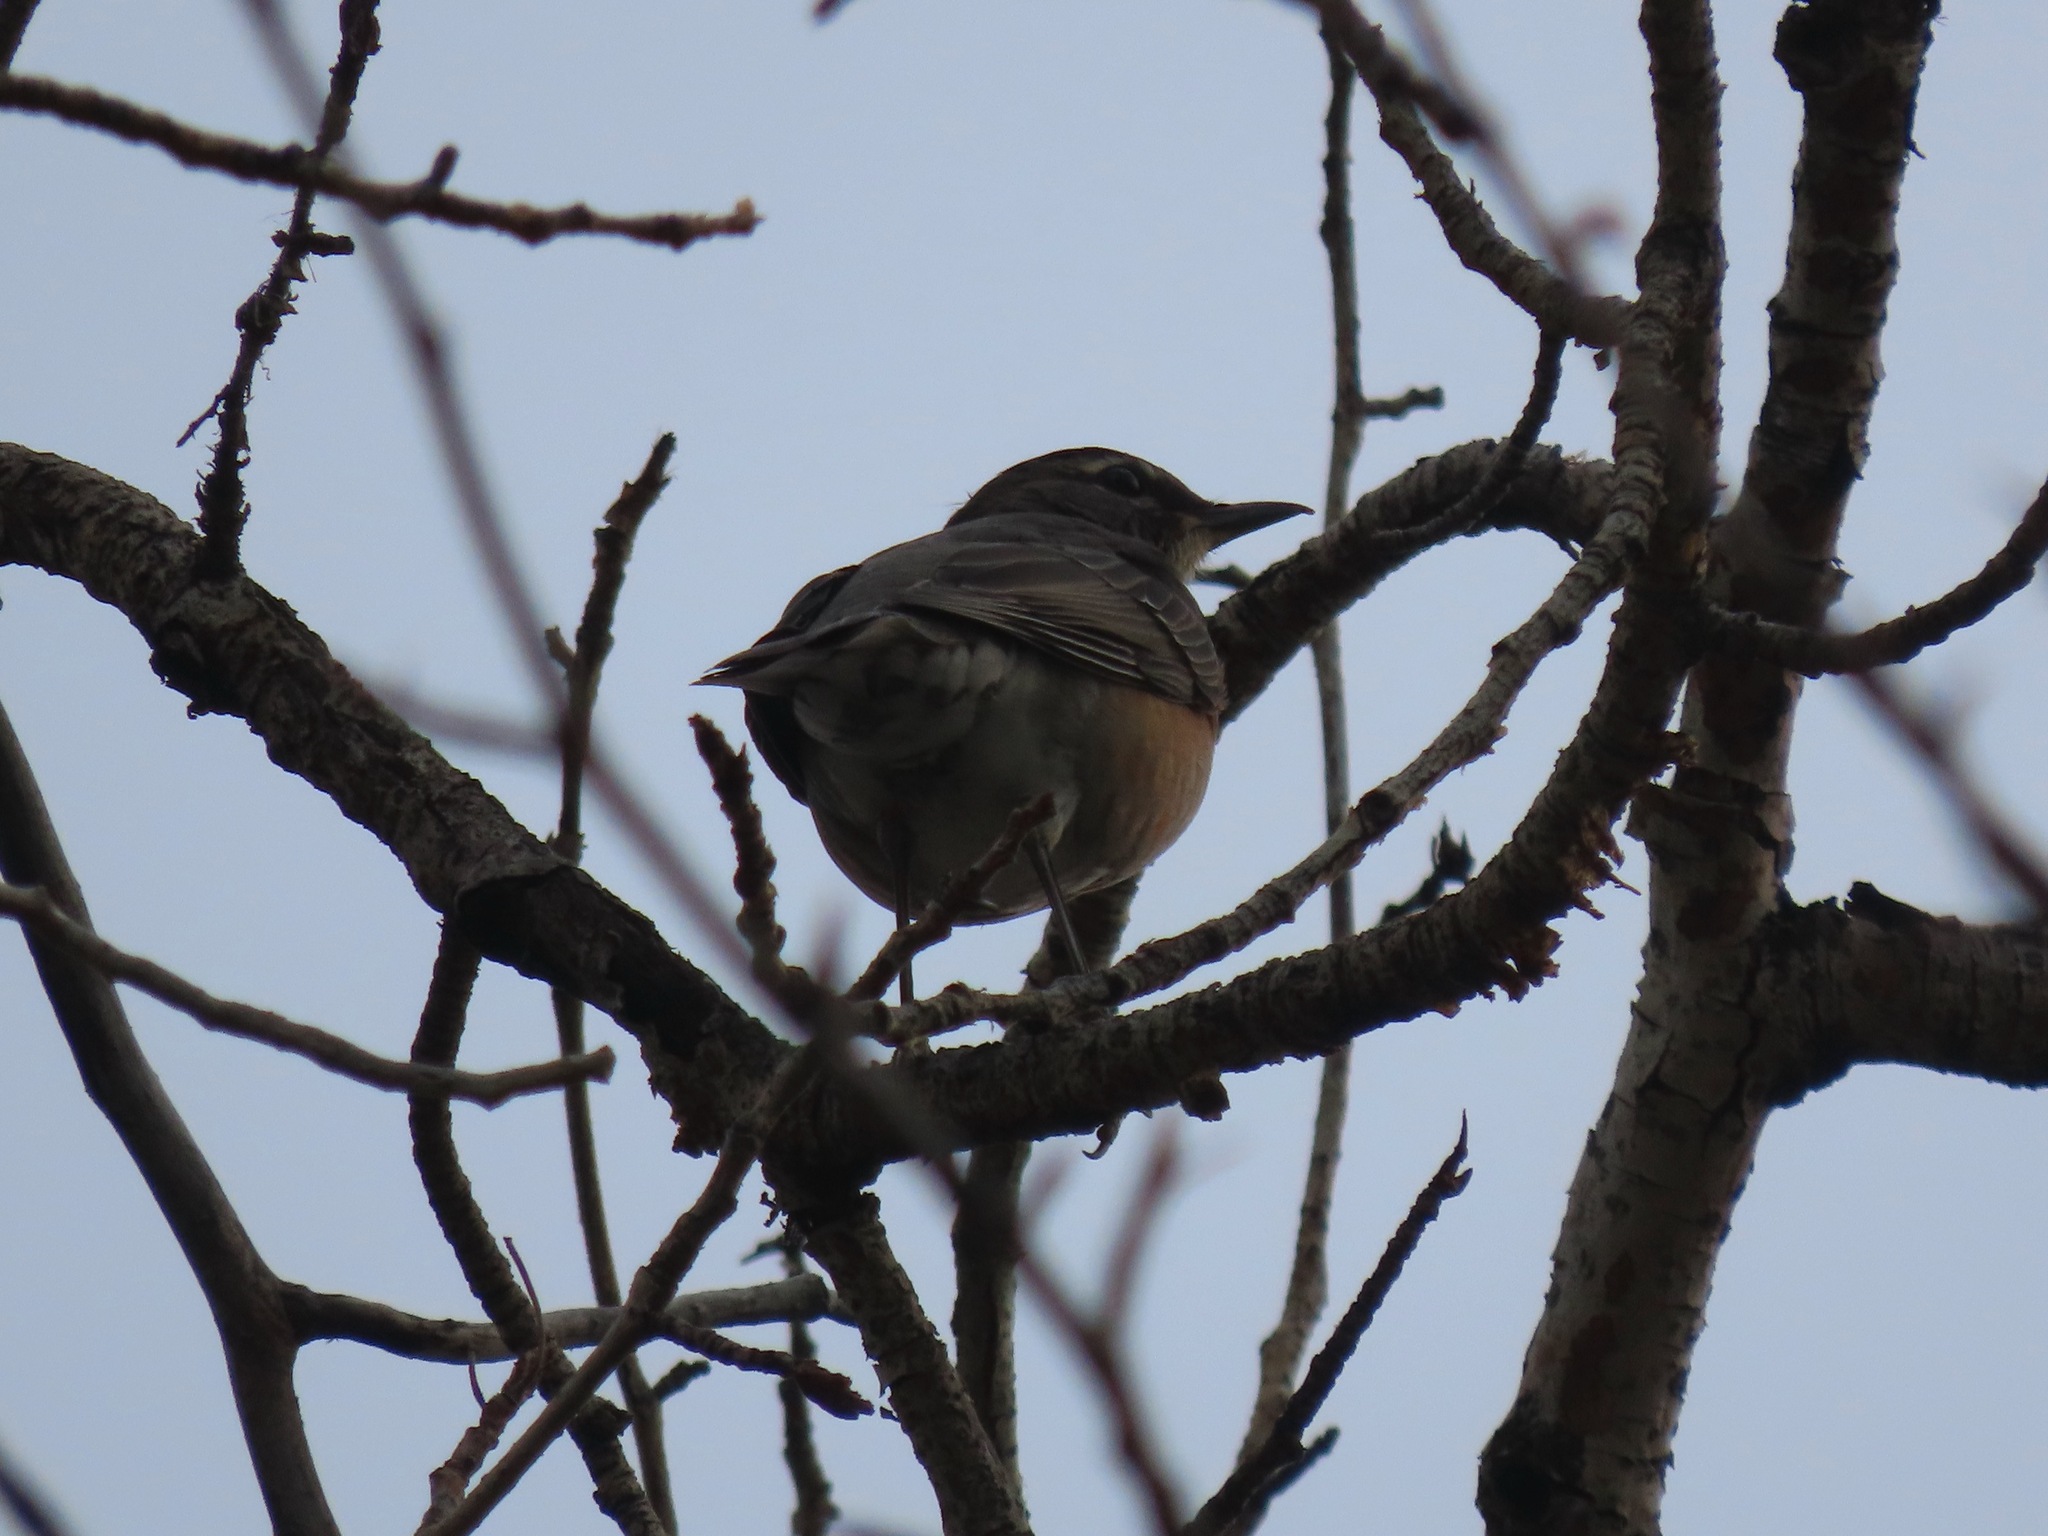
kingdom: Animalia
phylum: Chordata
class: Aves
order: Passeriformes
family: Turdidae
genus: Turdus
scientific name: Turdus migratorius
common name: American robin
